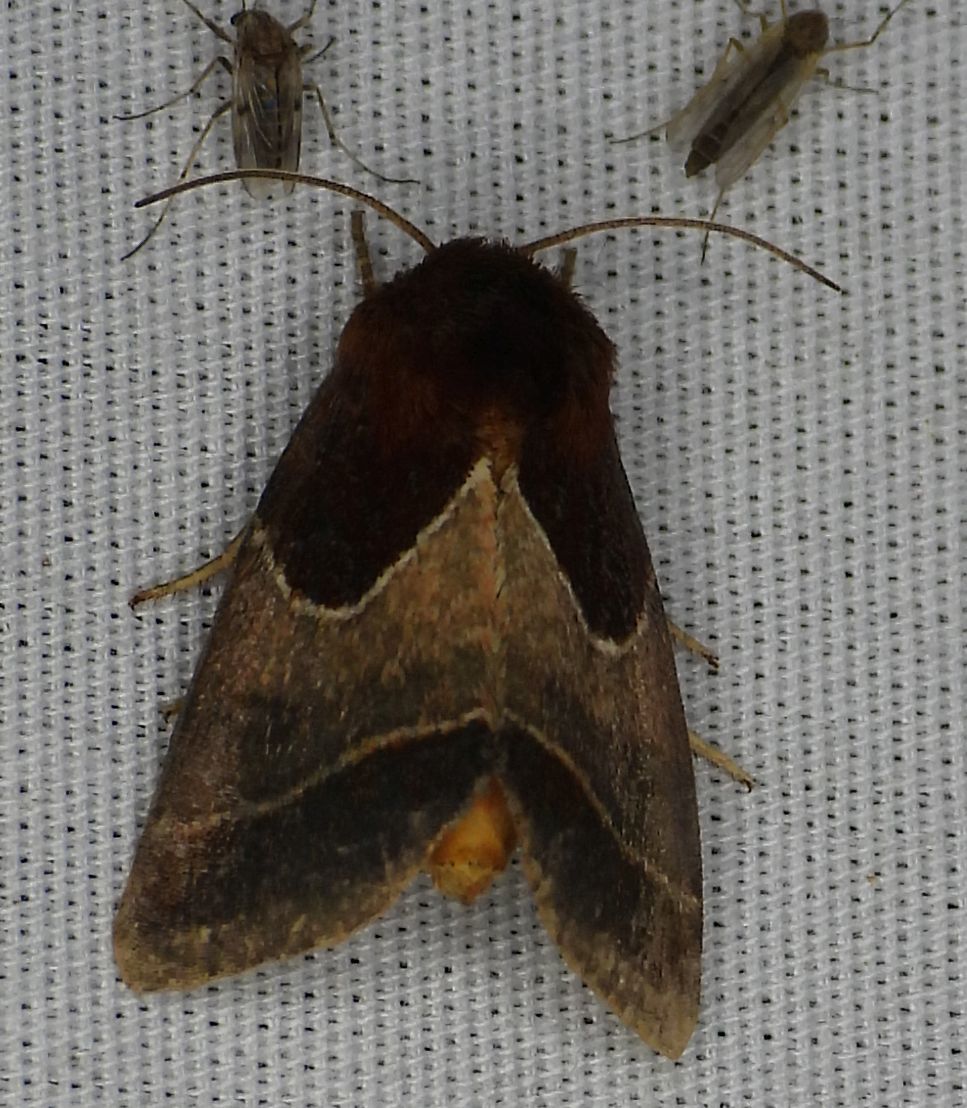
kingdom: Animalia
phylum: Arthropoda
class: Insecta
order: Lepidoptera
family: Noctuidae
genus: Schinia
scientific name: Schinia arcigera
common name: Arcigera flower moth
